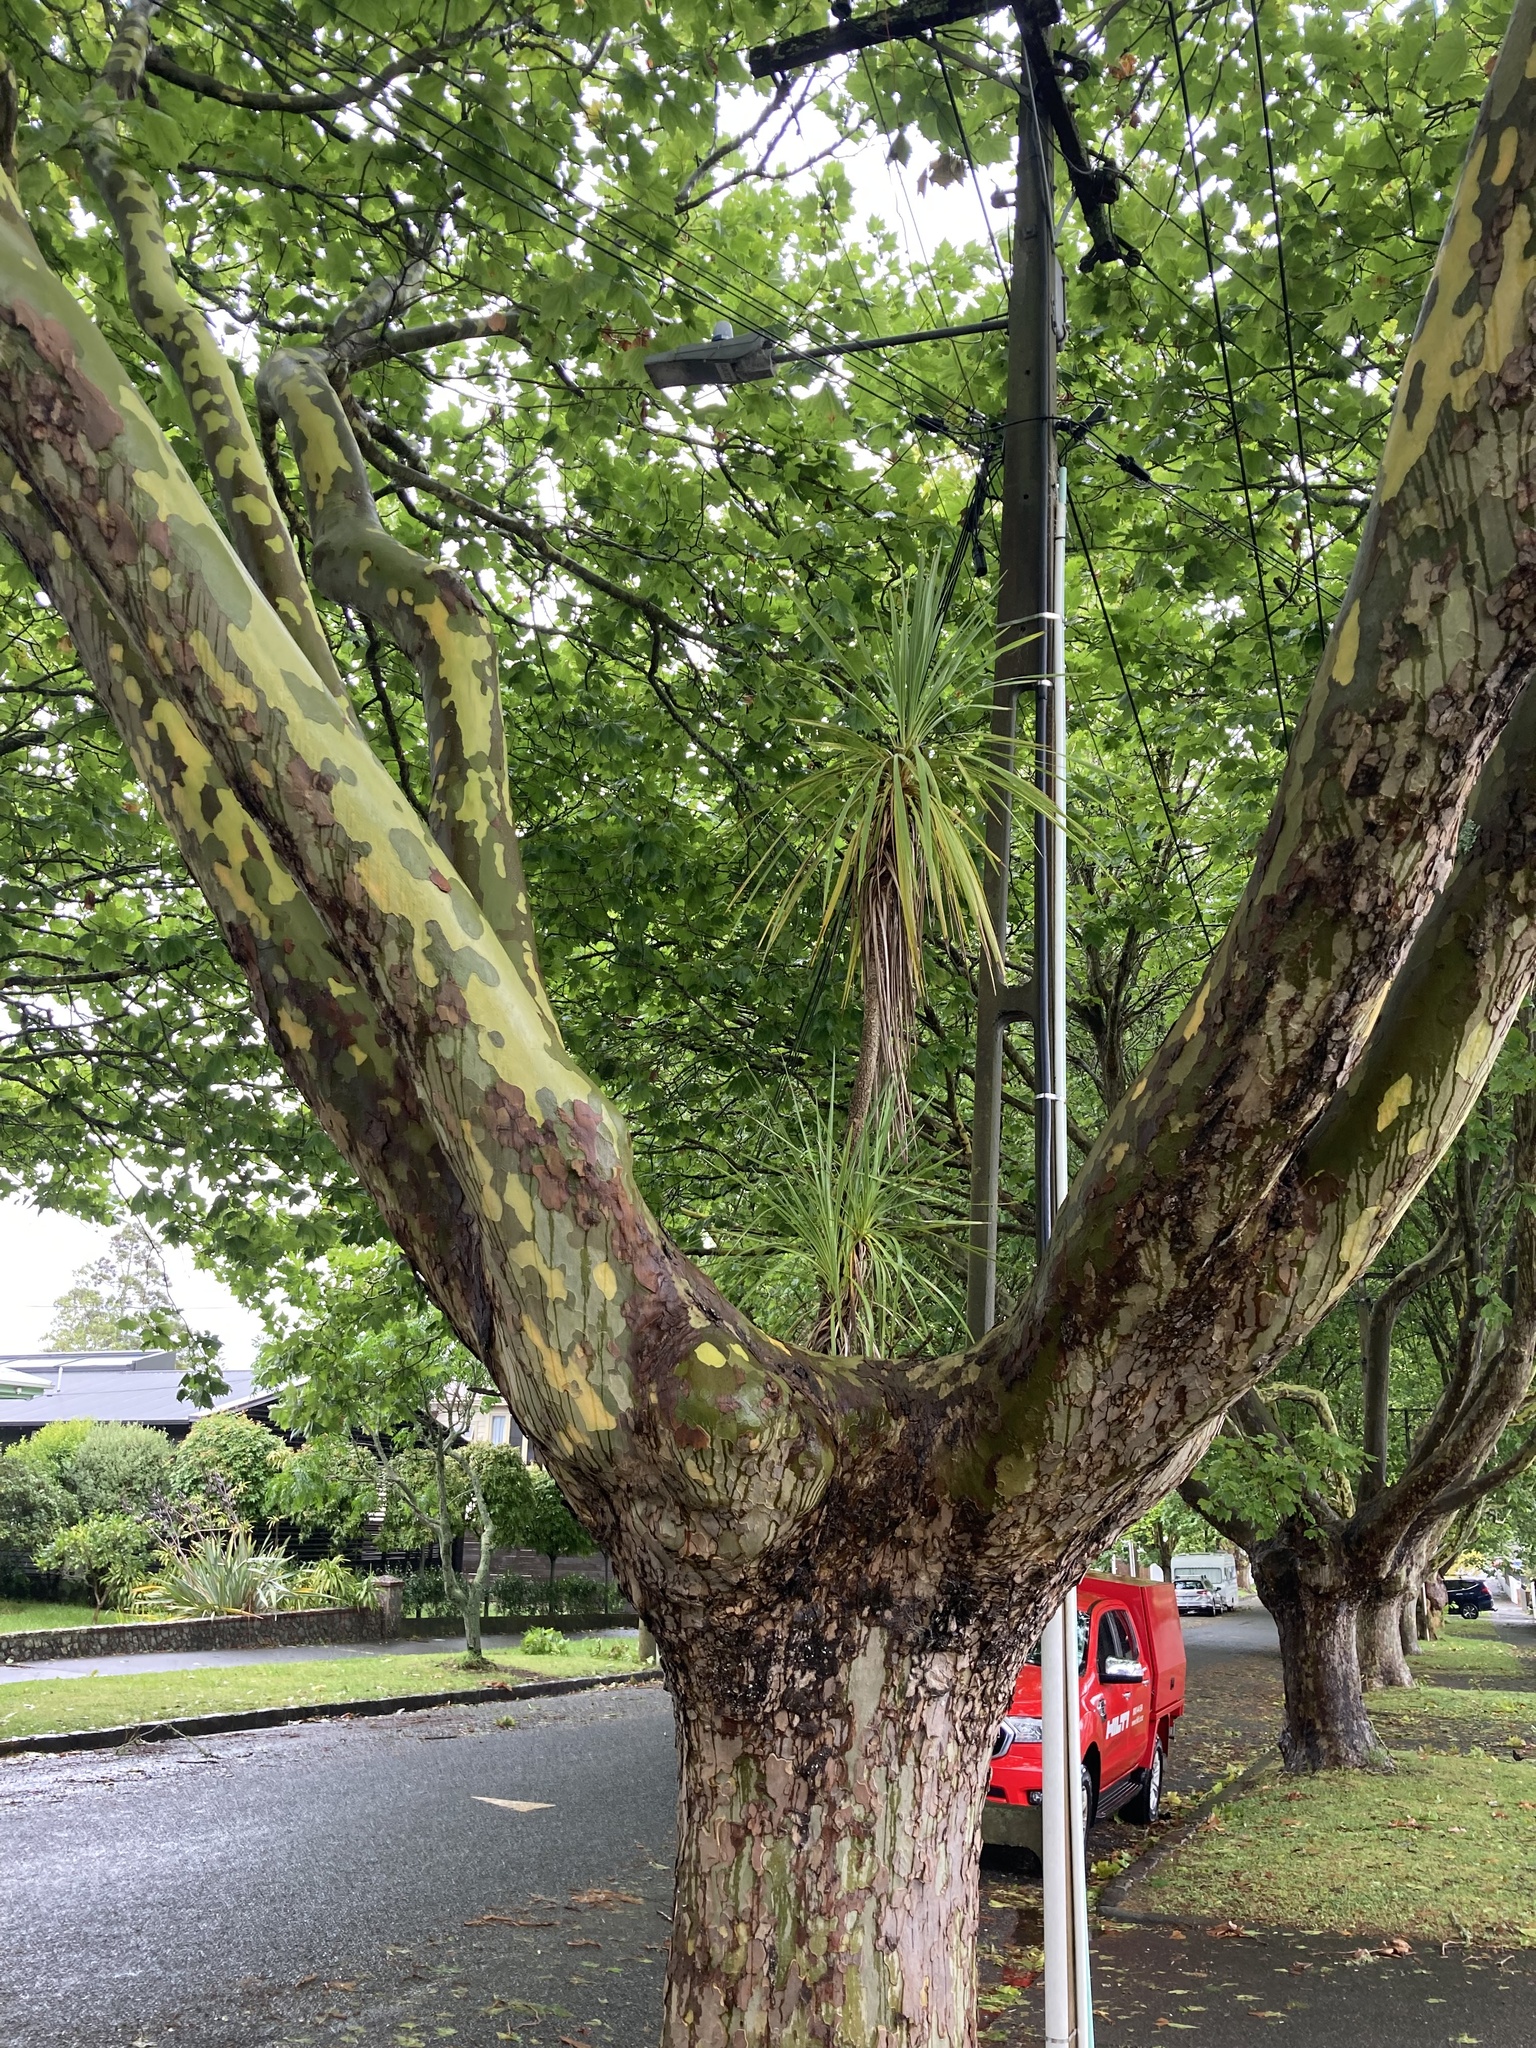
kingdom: Plantae
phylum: Tracheophyta
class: Liliopsida
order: Asparagales
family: Asparagaceae
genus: Cordyline
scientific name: Cordyline australis
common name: Cabbage-palm
